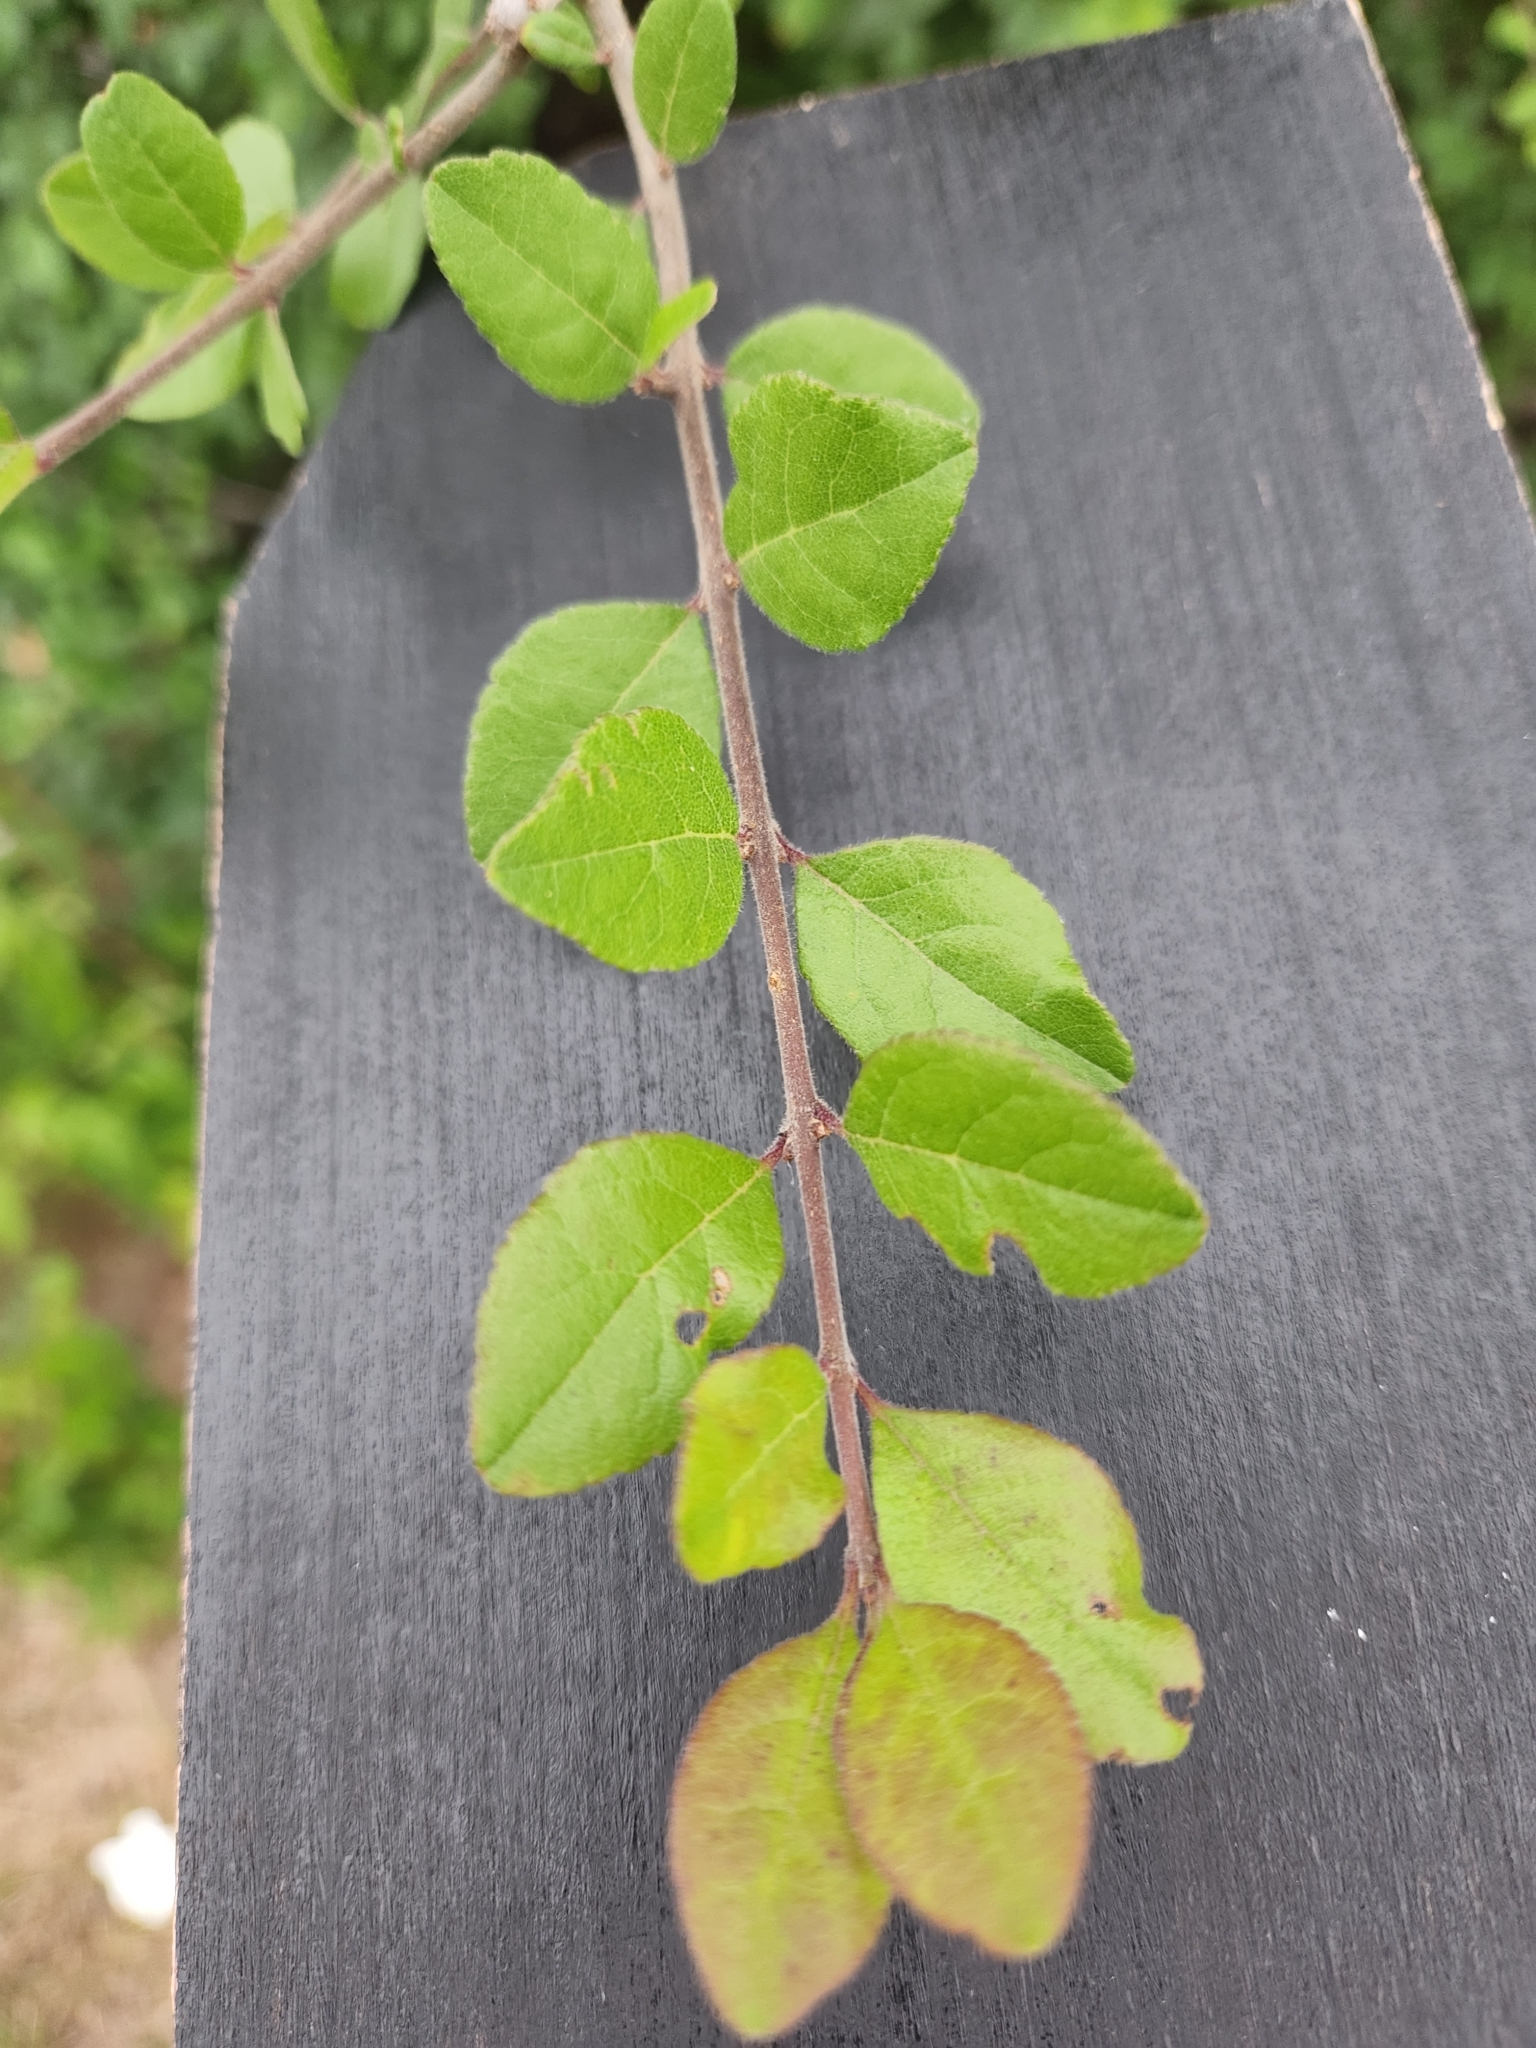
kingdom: Plantae
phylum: Tracheophyta
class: Magnoliopsida
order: Lamiales
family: Oleaceae
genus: Forestiera
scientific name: Forestiera pubescens
